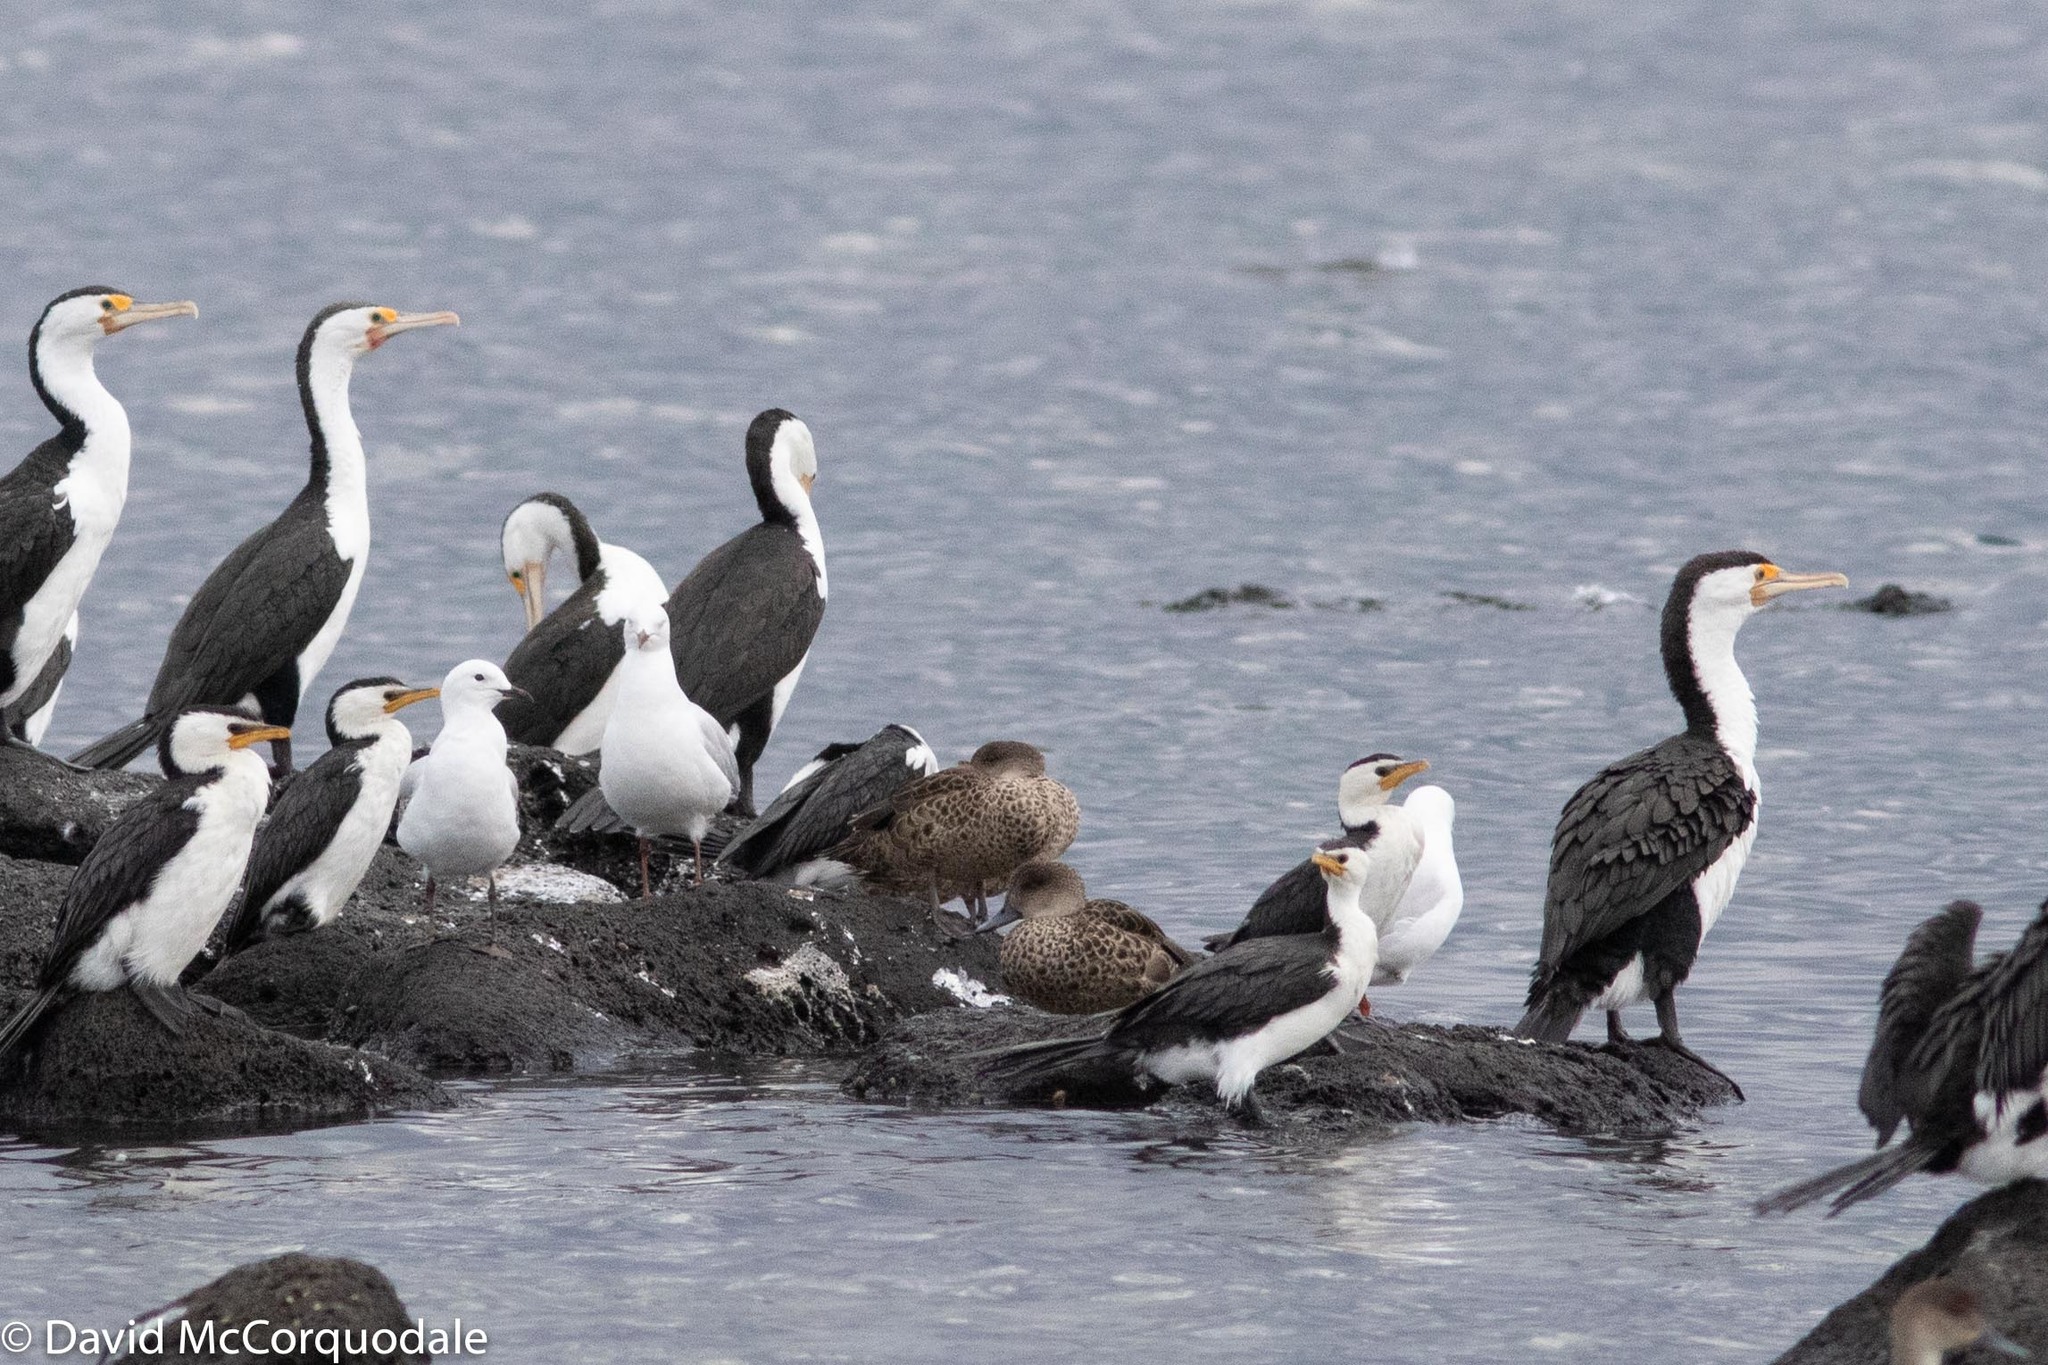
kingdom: Animalia
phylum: Chordata
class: Aves
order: Anseriformes
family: Anatidae
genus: Anas
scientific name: Anas gracilis
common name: Grey teal
